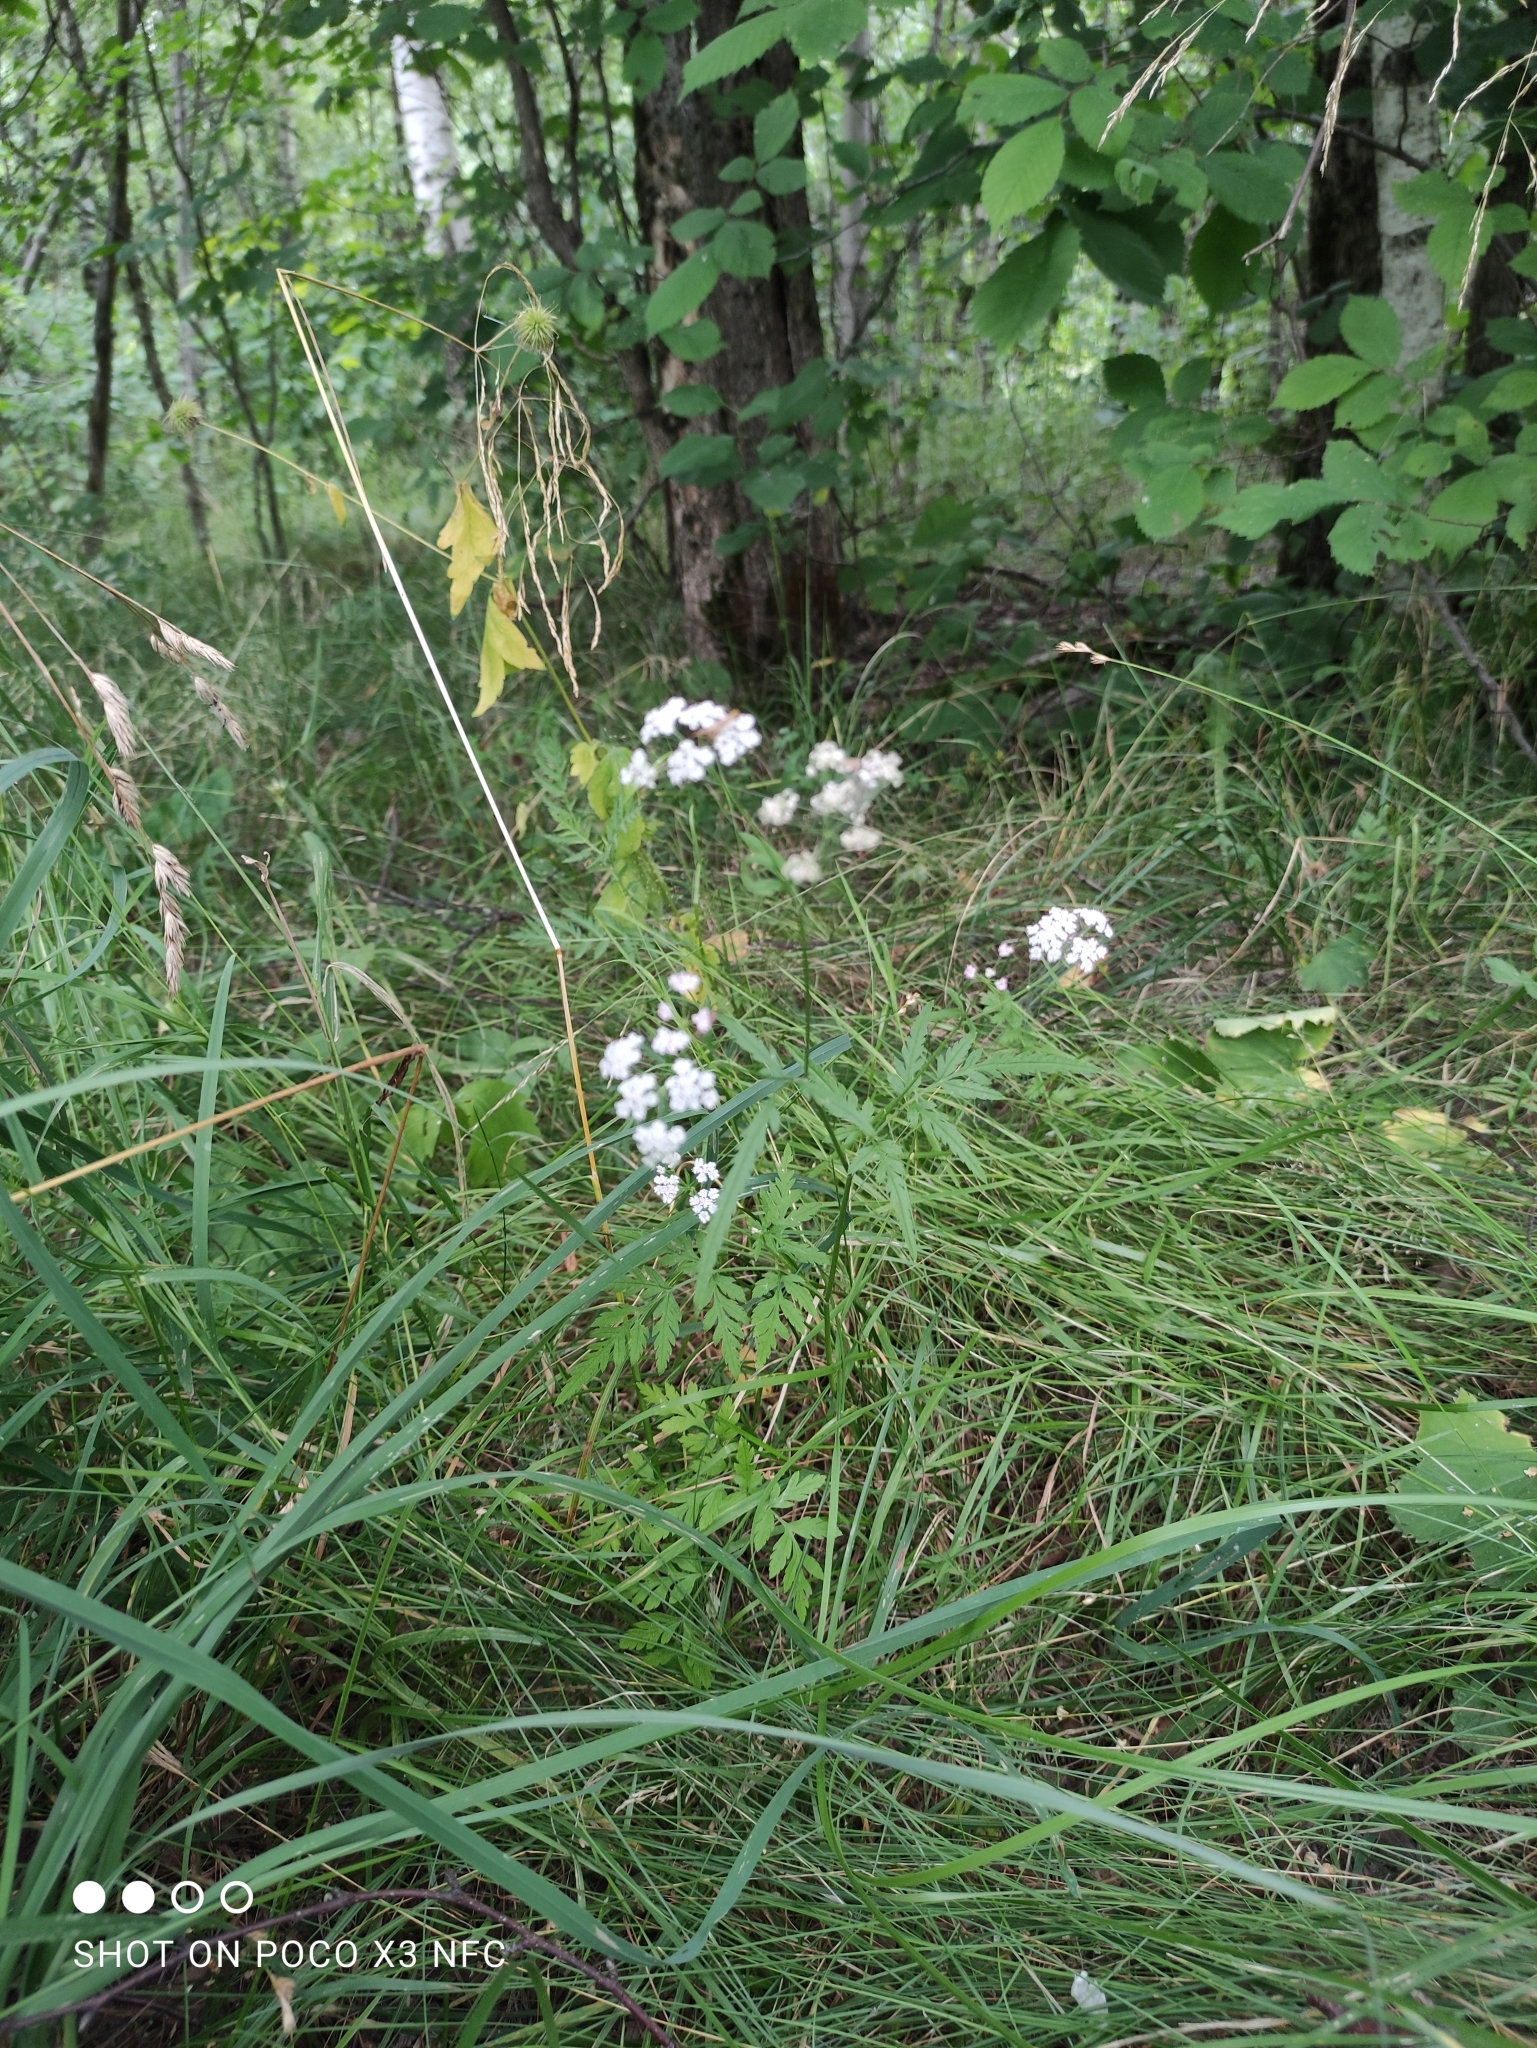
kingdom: Plantae
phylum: Tracheophyta
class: Magnoliopsida
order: Apiales
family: Apiaceae
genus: Torilis
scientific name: Torilis japonica
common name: Upright hedge-parsley
